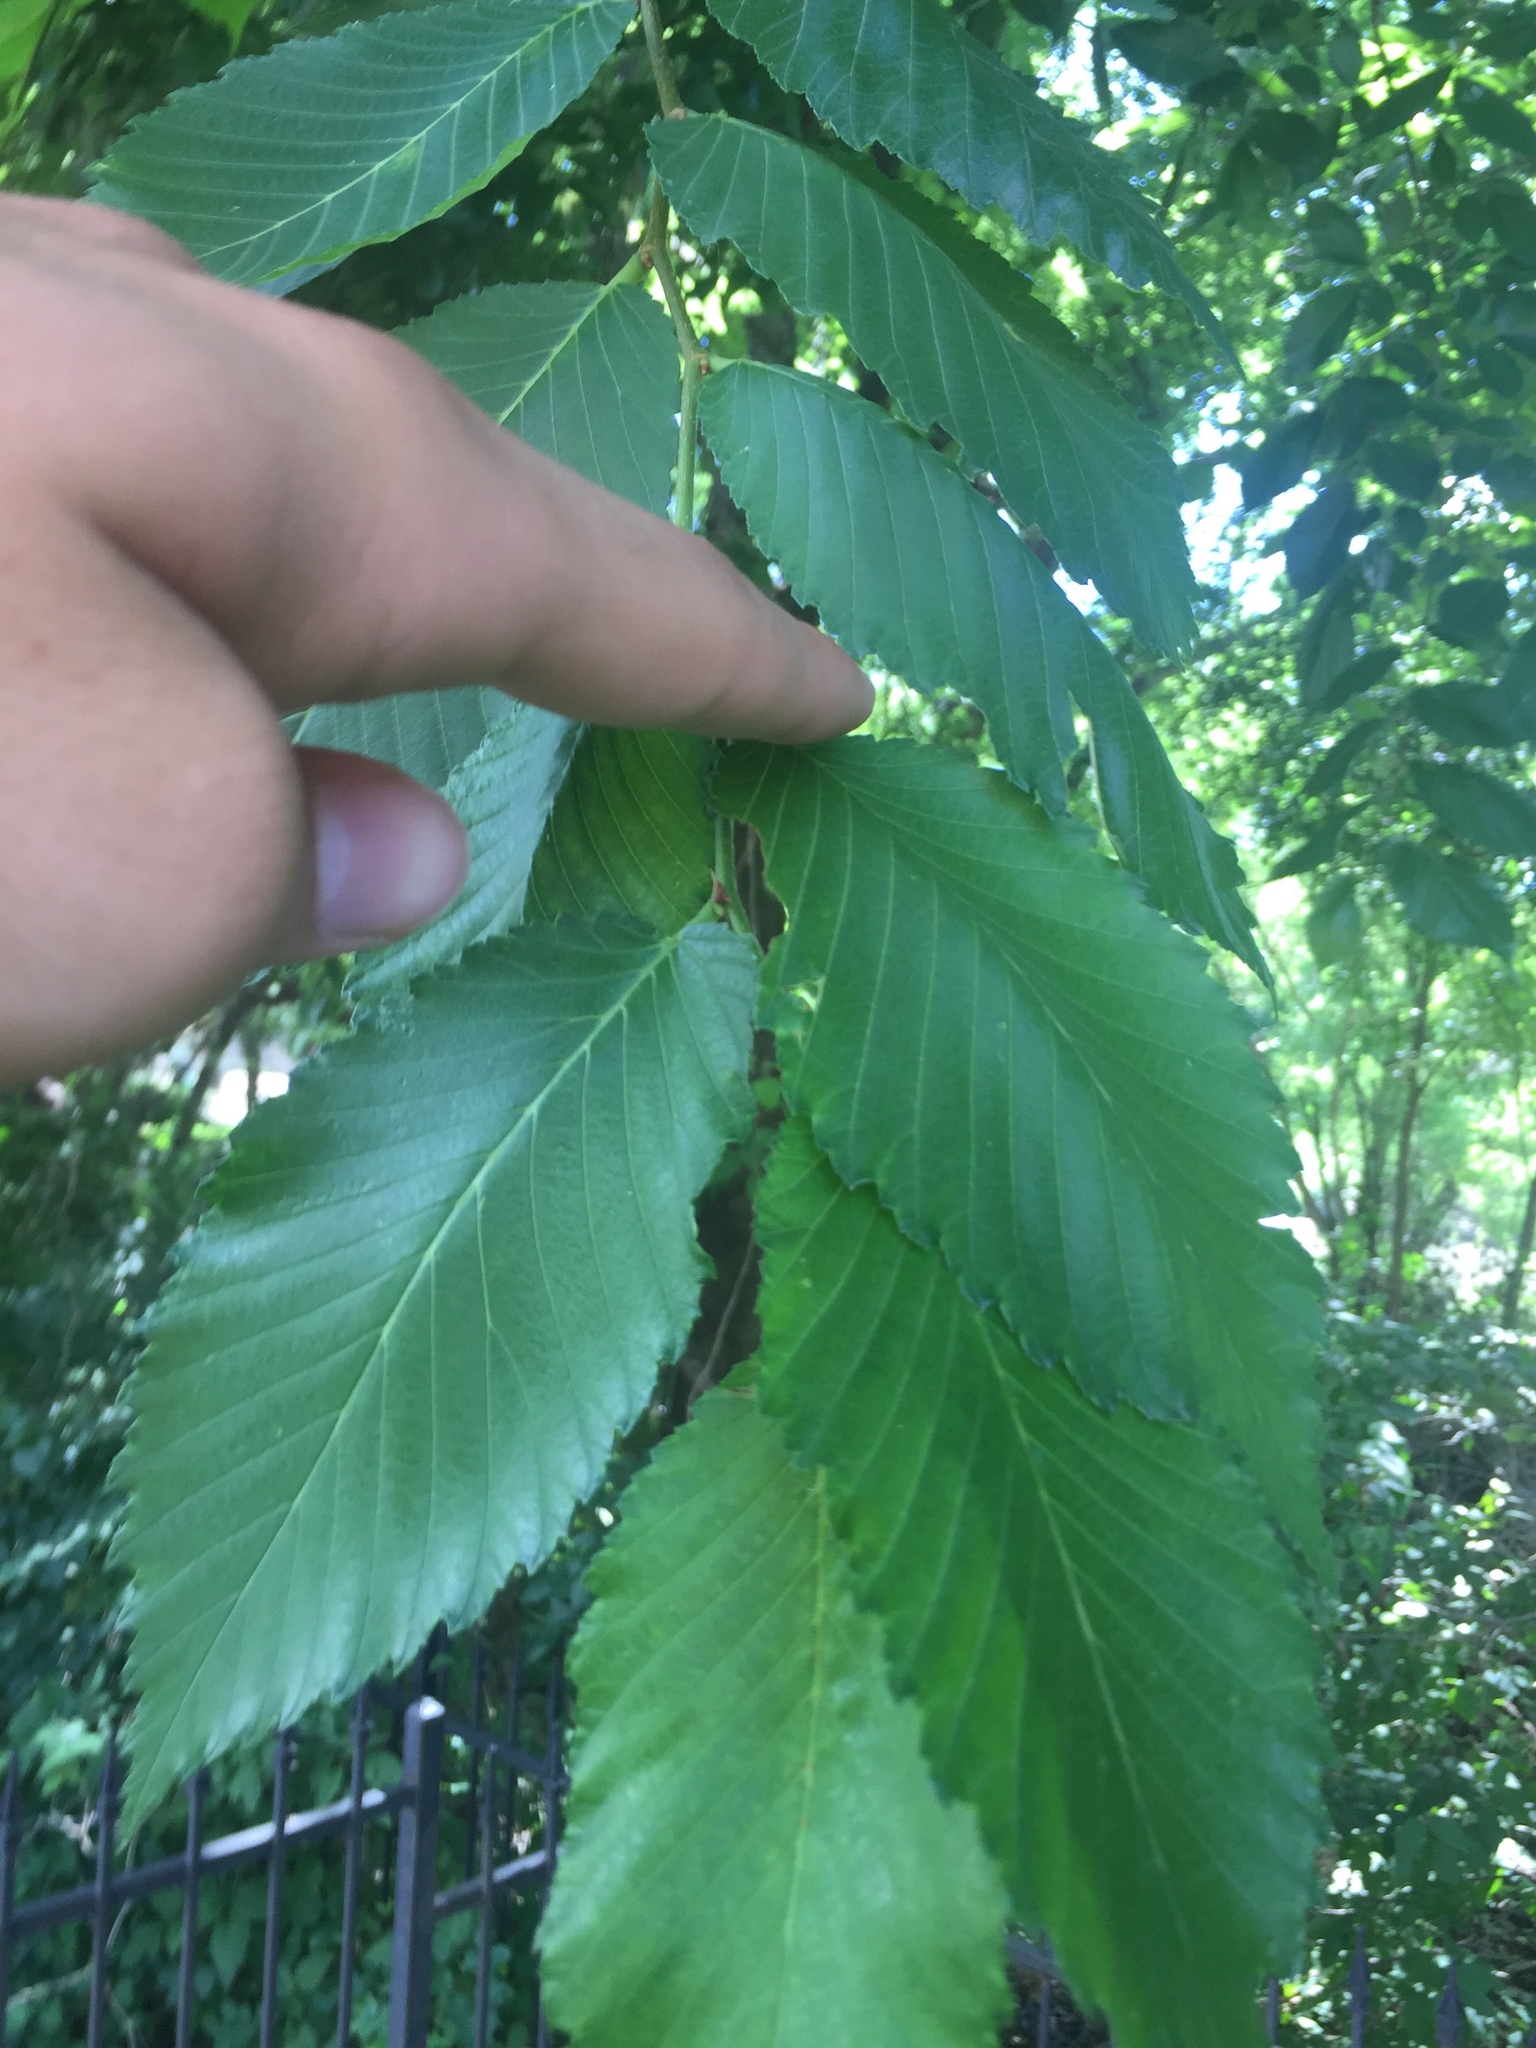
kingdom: Plantae
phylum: Tracheophyta
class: Magnoliopsida
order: Rosales
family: Ulmaceae
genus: Ulmus
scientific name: Ulmus americana
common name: American elm
